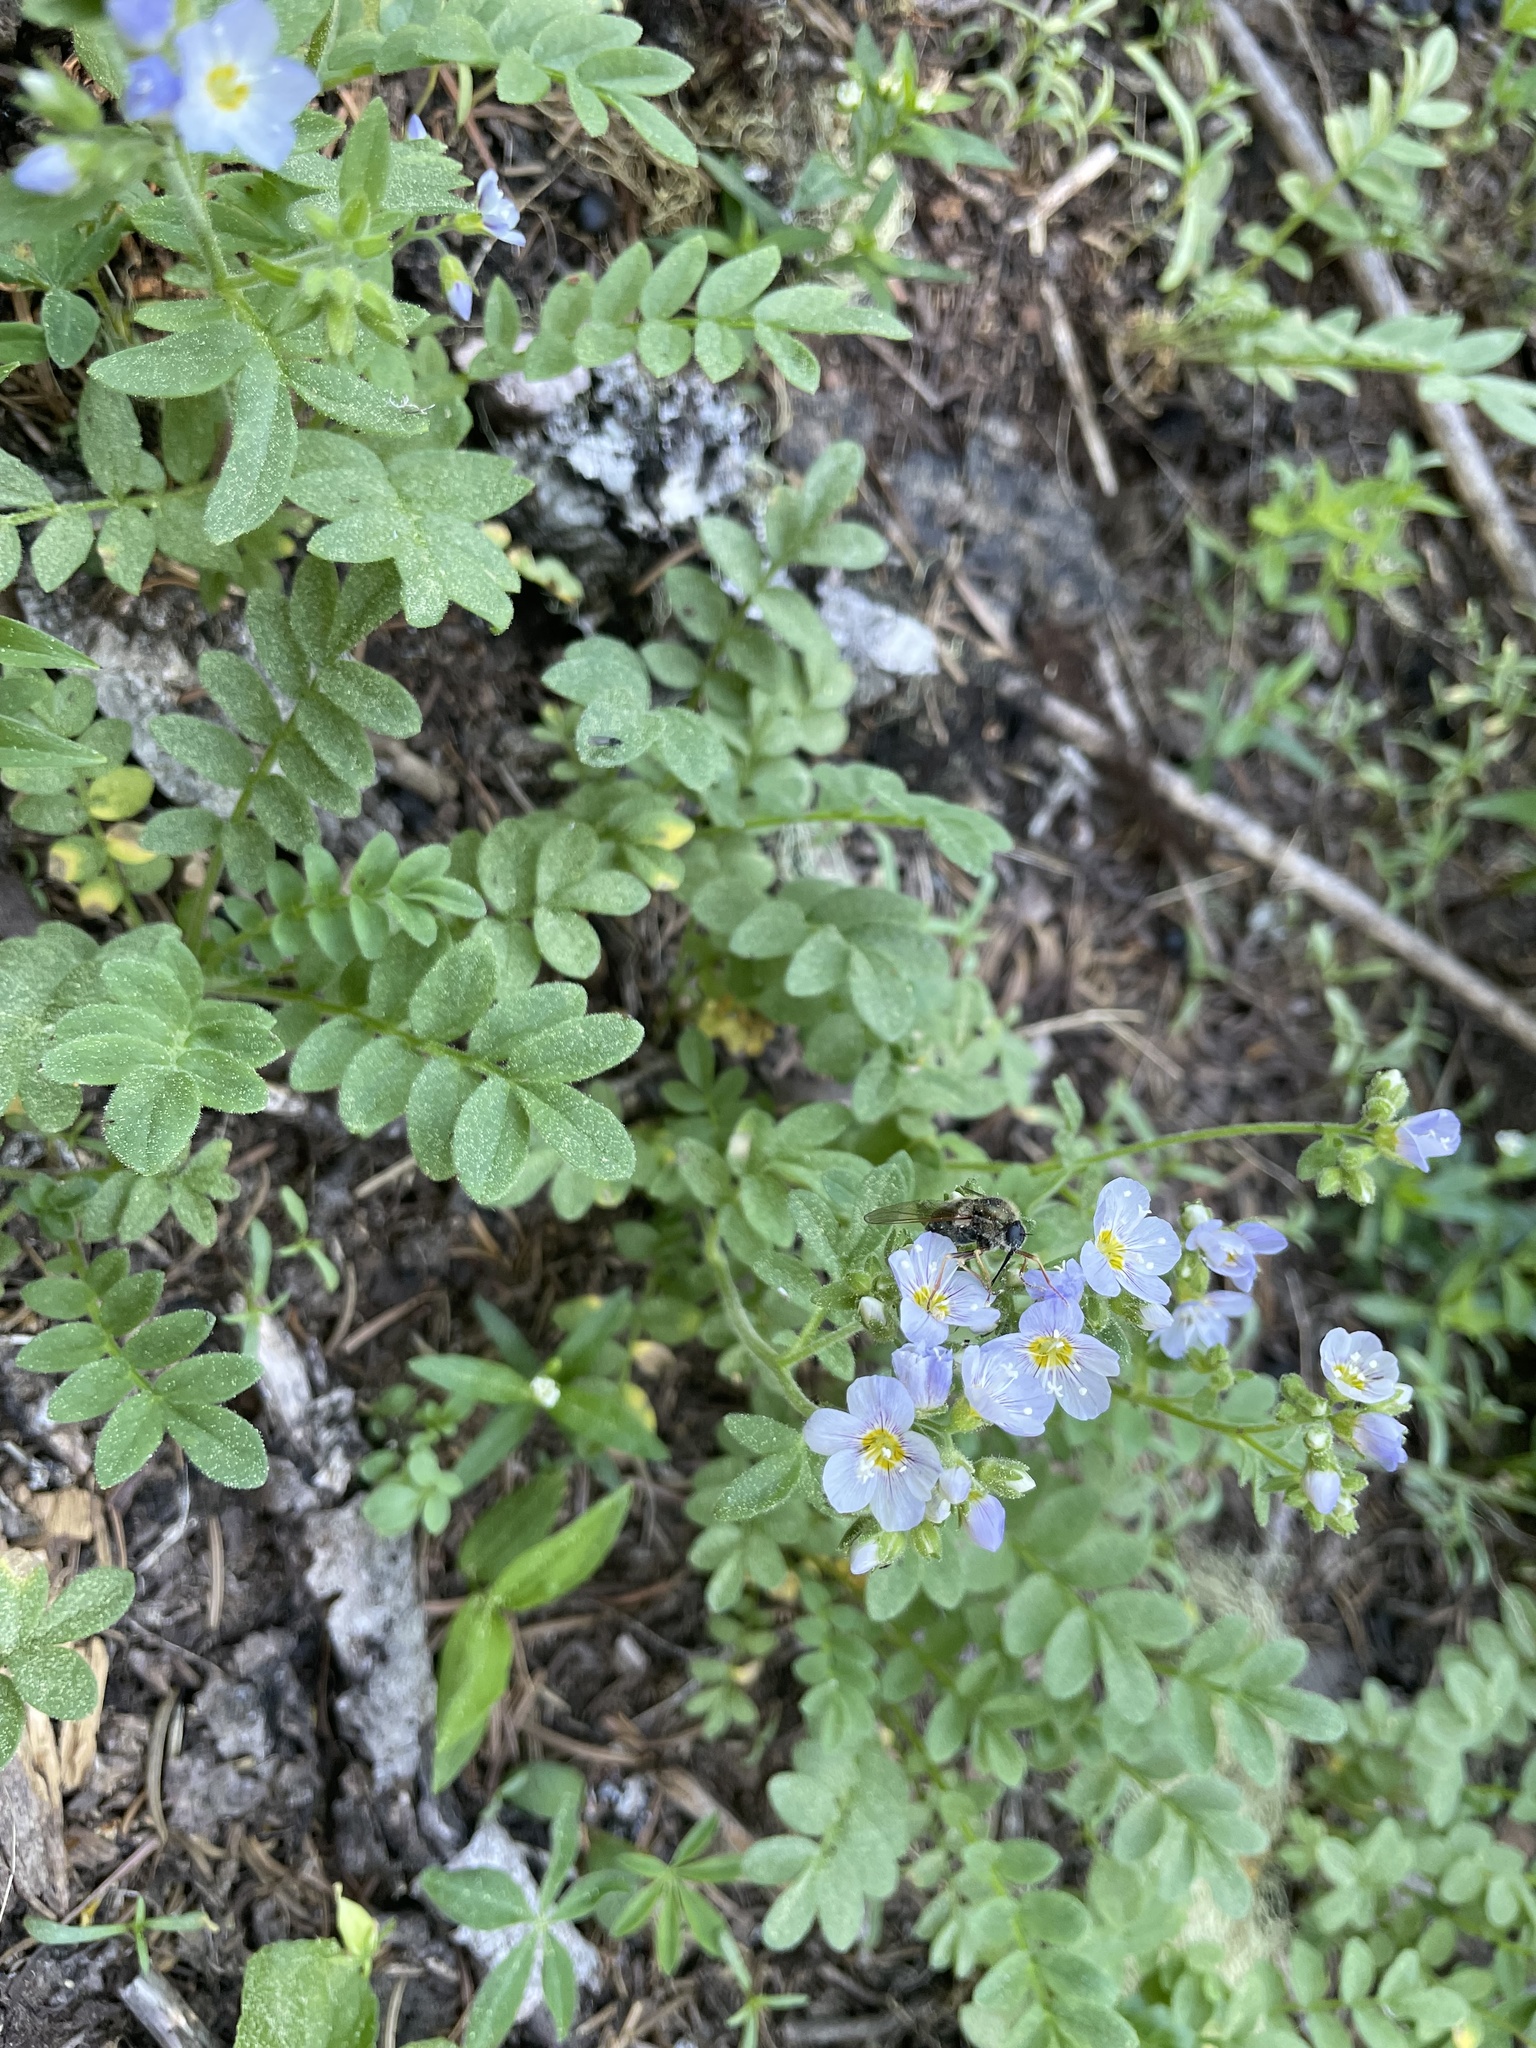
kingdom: Plantae
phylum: Tracheophyta
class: Magnoliopsida
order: Ericales
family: Polemoniaceae
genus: Polemonium
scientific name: Polemonium californicum
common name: California jacob's ladder
